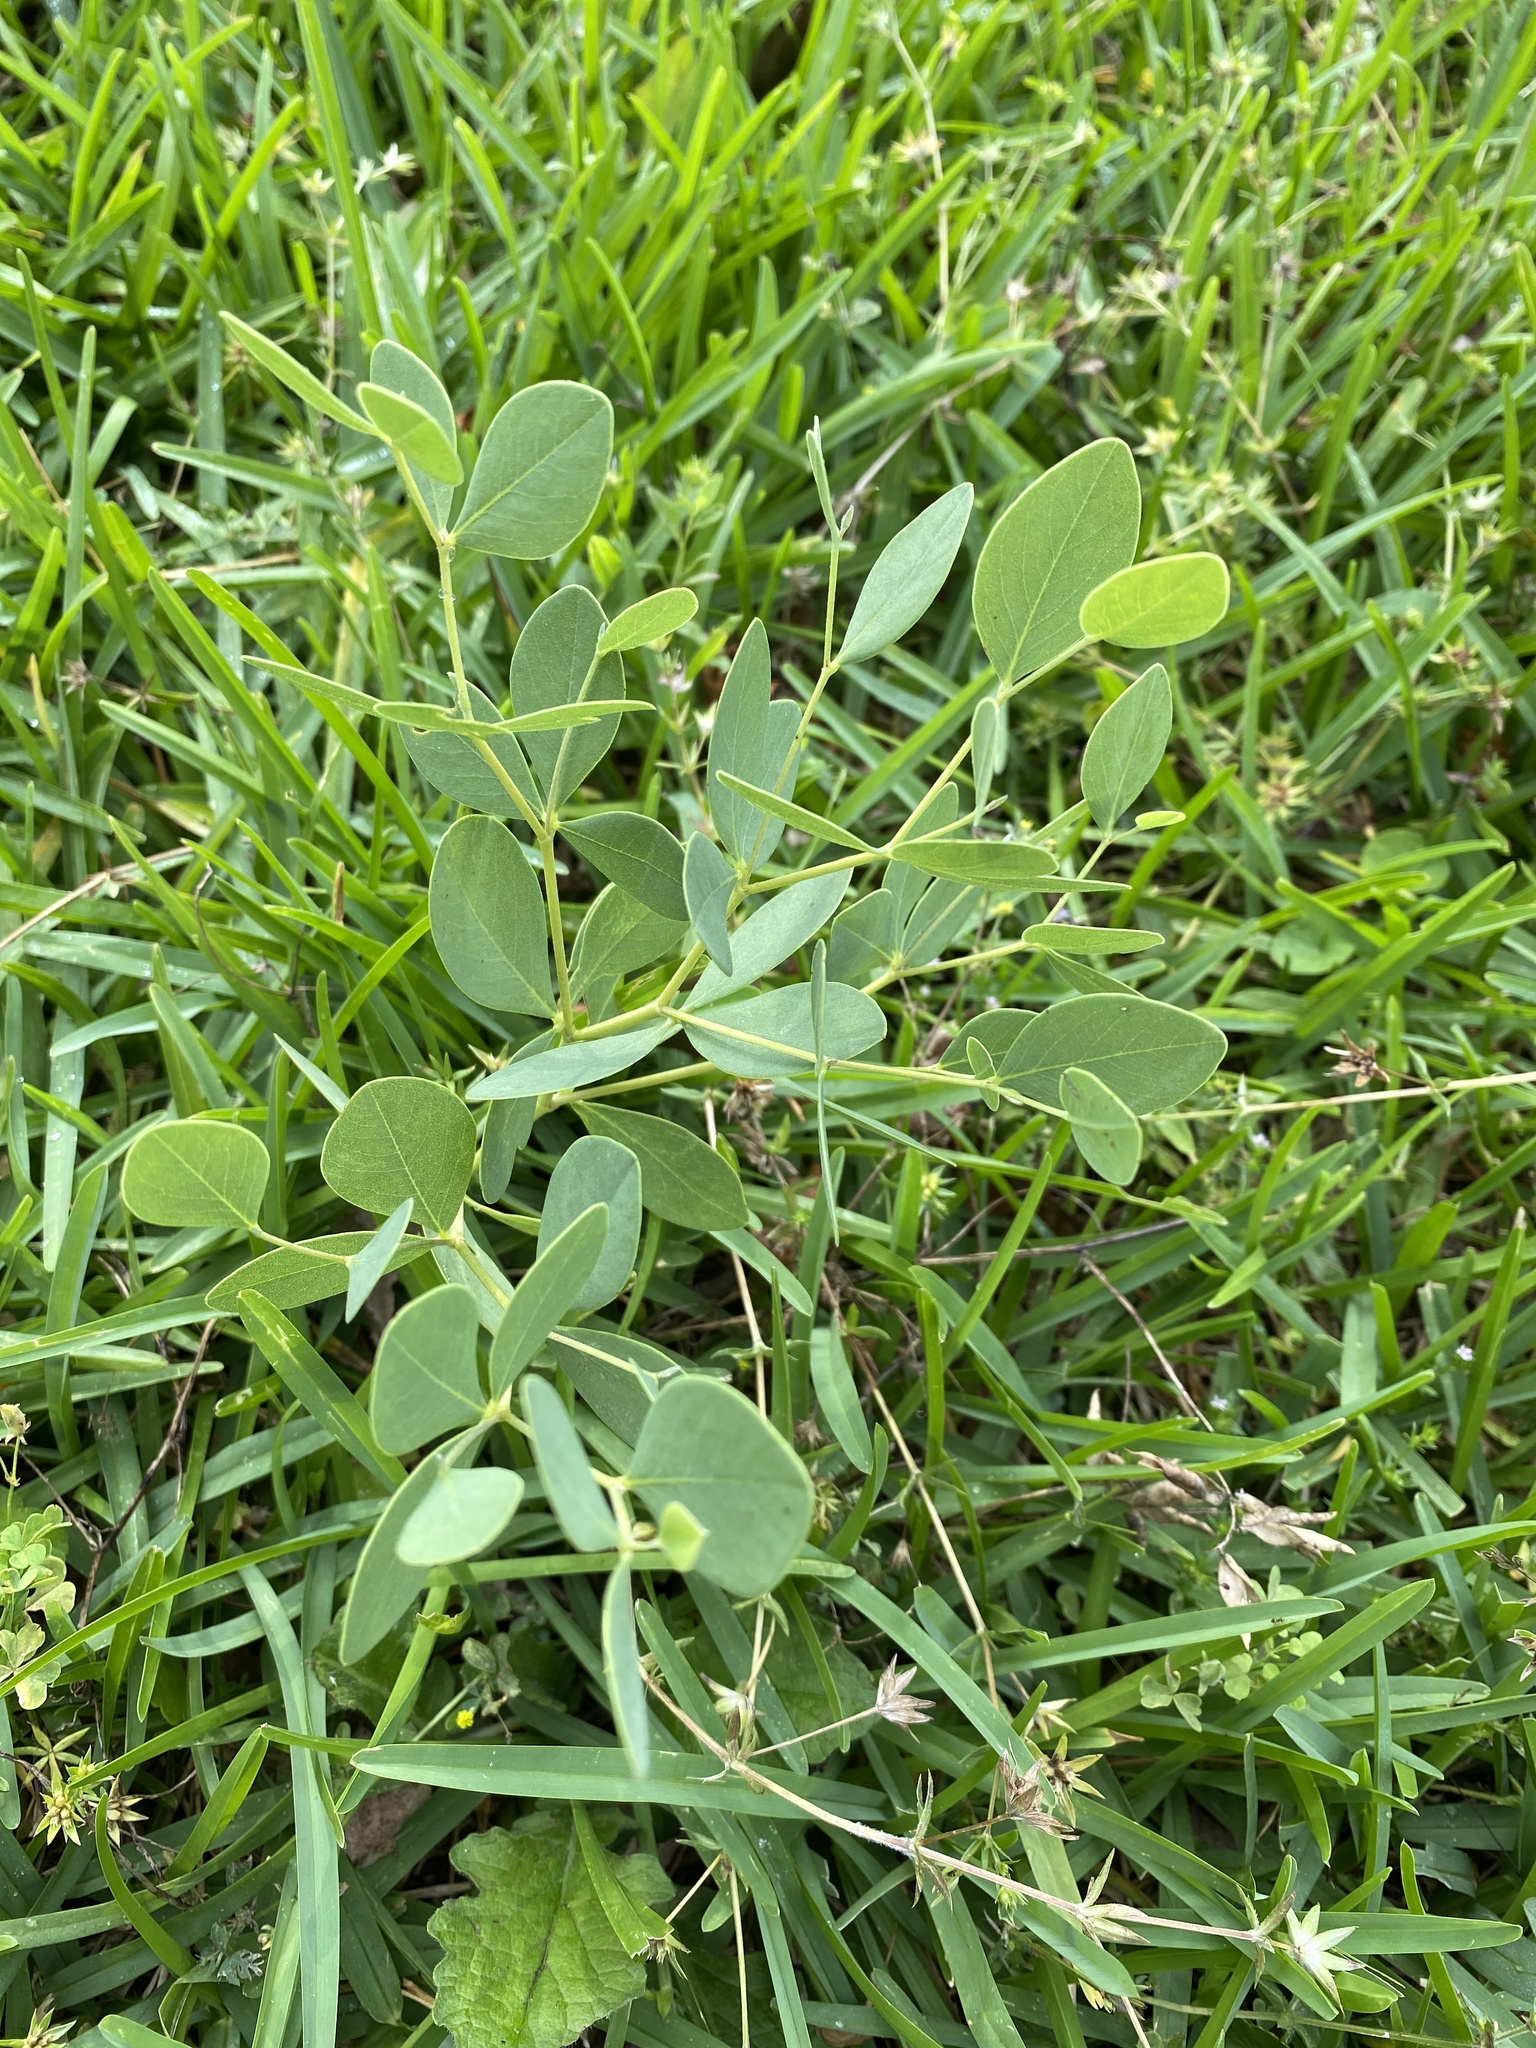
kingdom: Plantae
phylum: Tracheophyta
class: Magnoliopsida
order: Fabales
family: Fabaceae
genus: Baptisia
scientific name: Baptisia sphaerocarpa
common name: Round wild indigo
